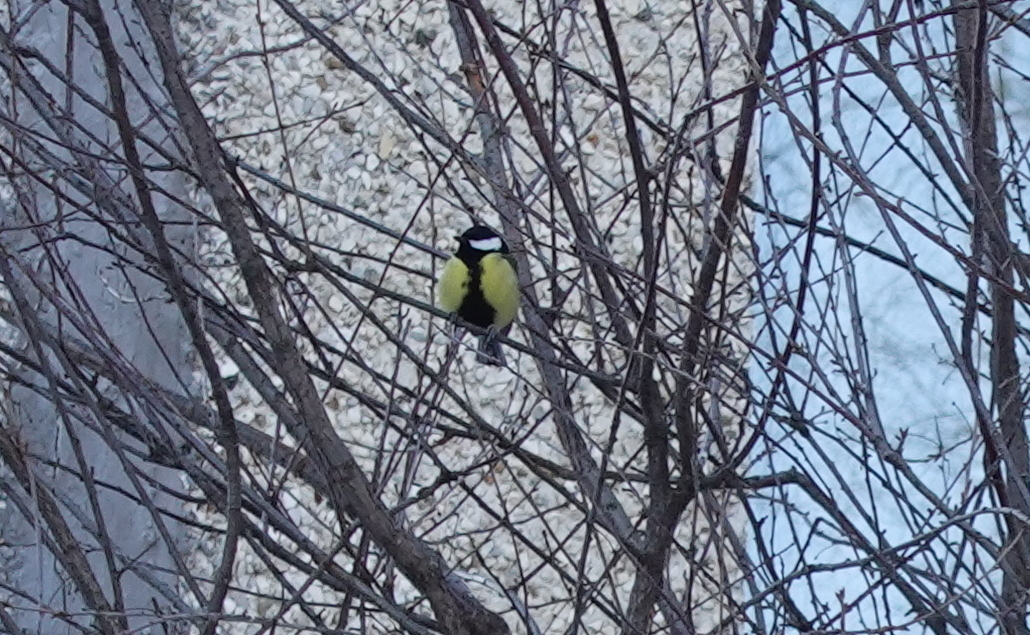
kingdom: Animalia
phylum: Chordata
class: Aves
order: Passeriformes
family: Paridae
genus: Parus
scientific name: Parus major
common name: Great tit
